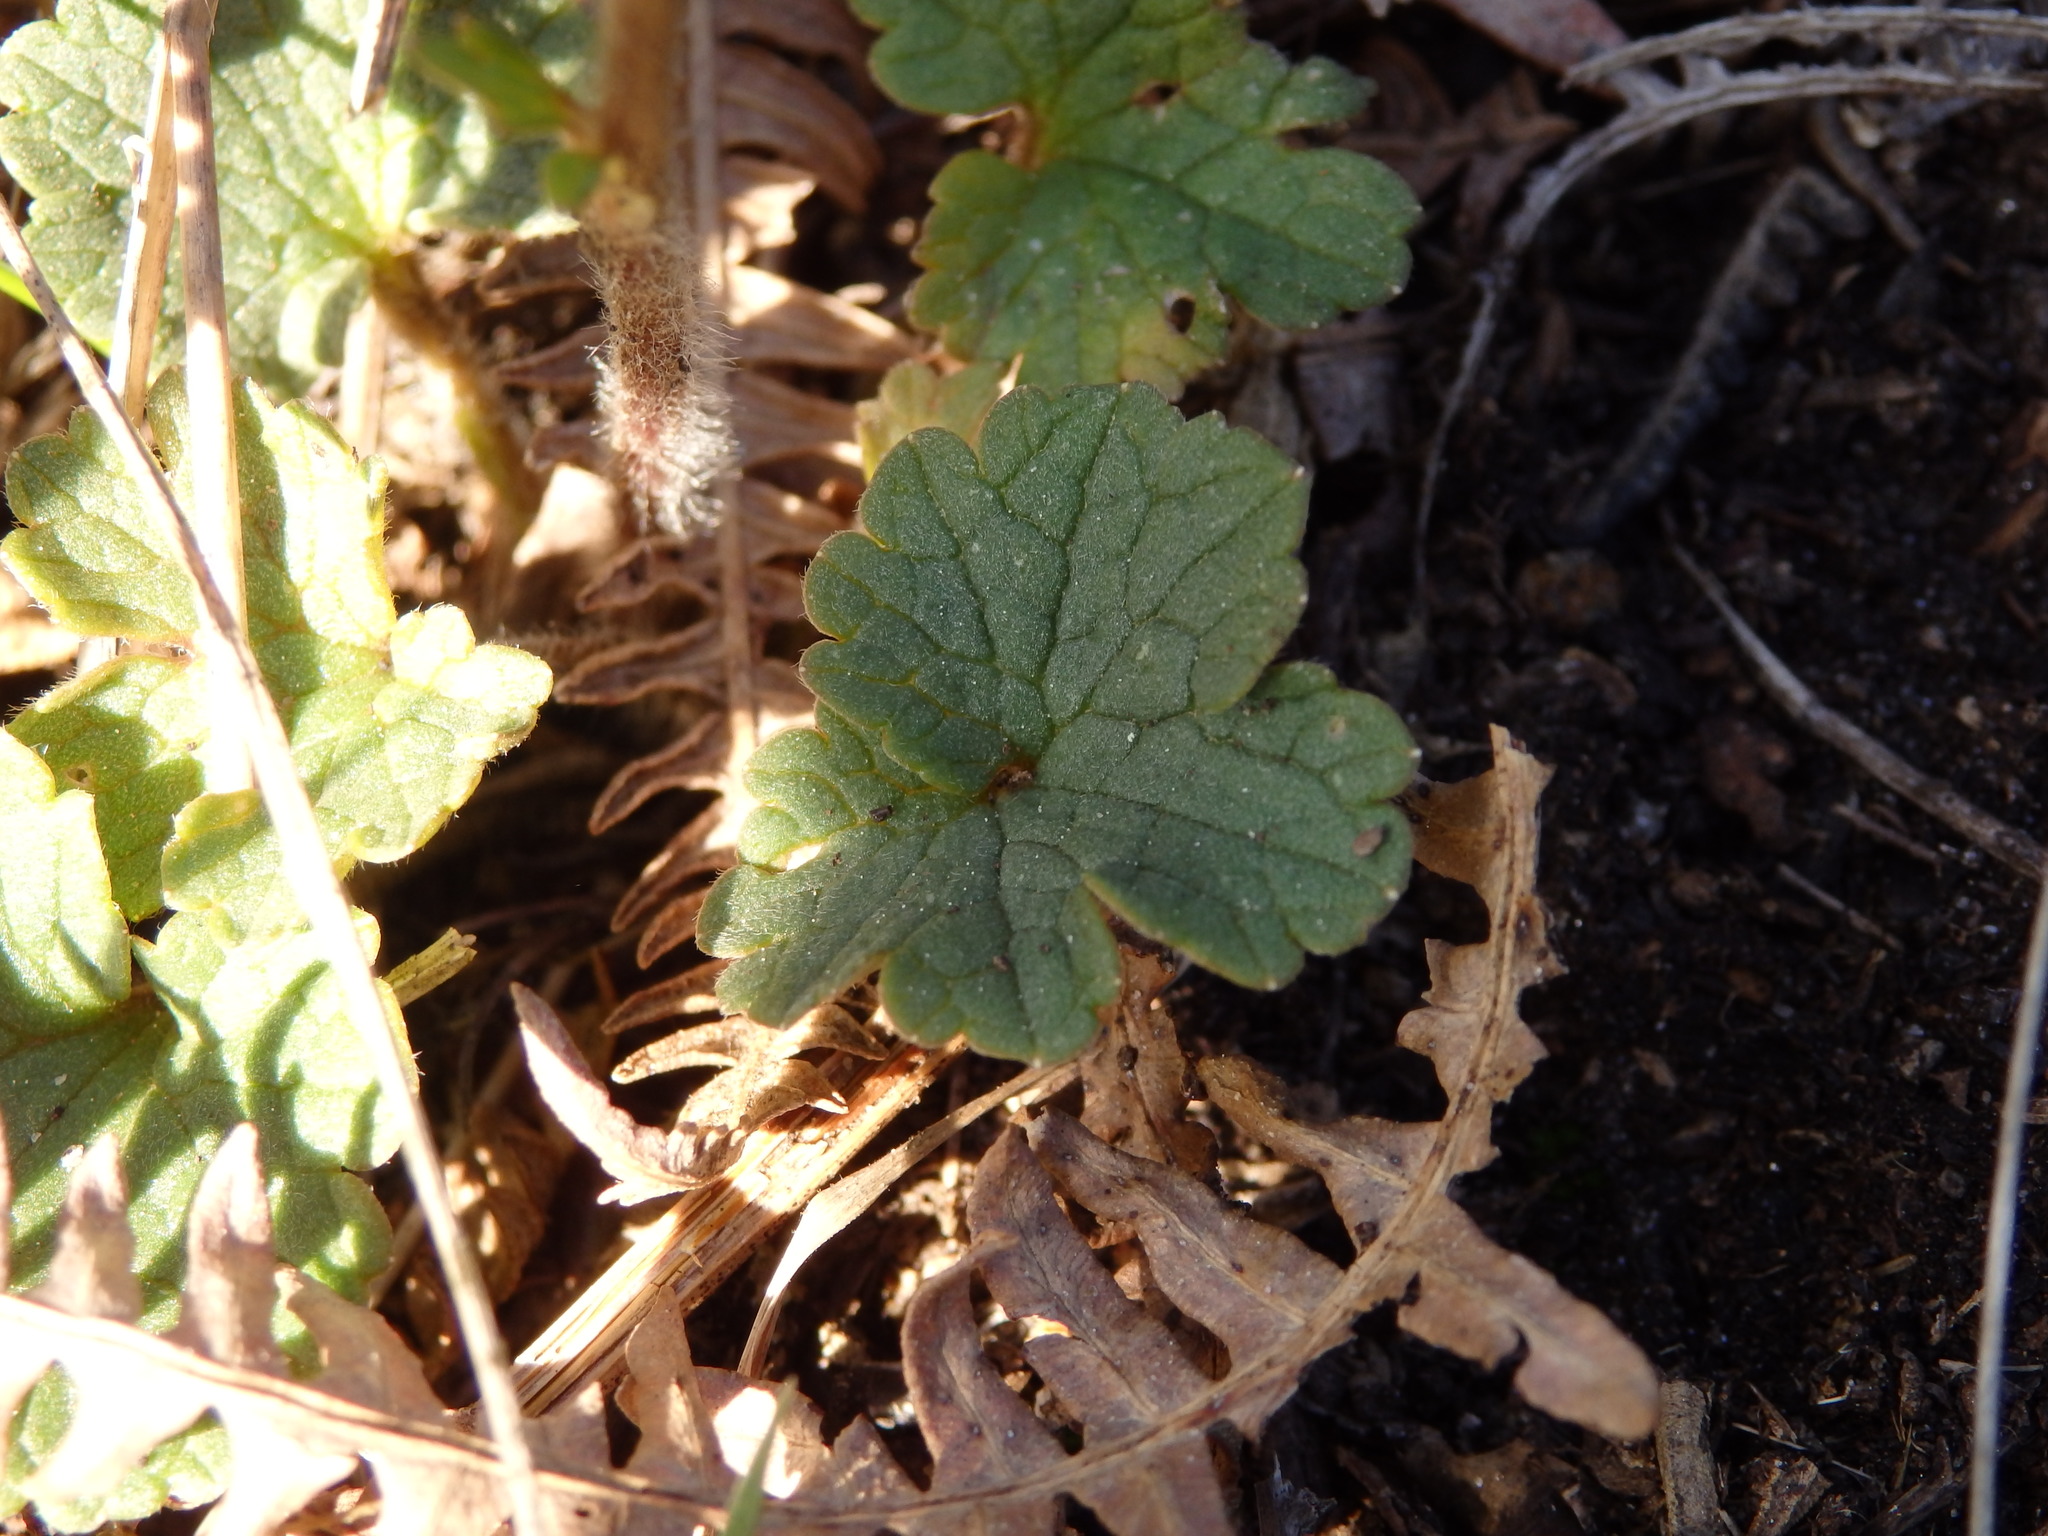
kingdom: Plantae
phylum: Tracheophyta
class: Magnoliopsida
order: Ranunculales
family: Ranunculaceae
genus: Ranunculus
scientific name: Ranunculus nigrescens
